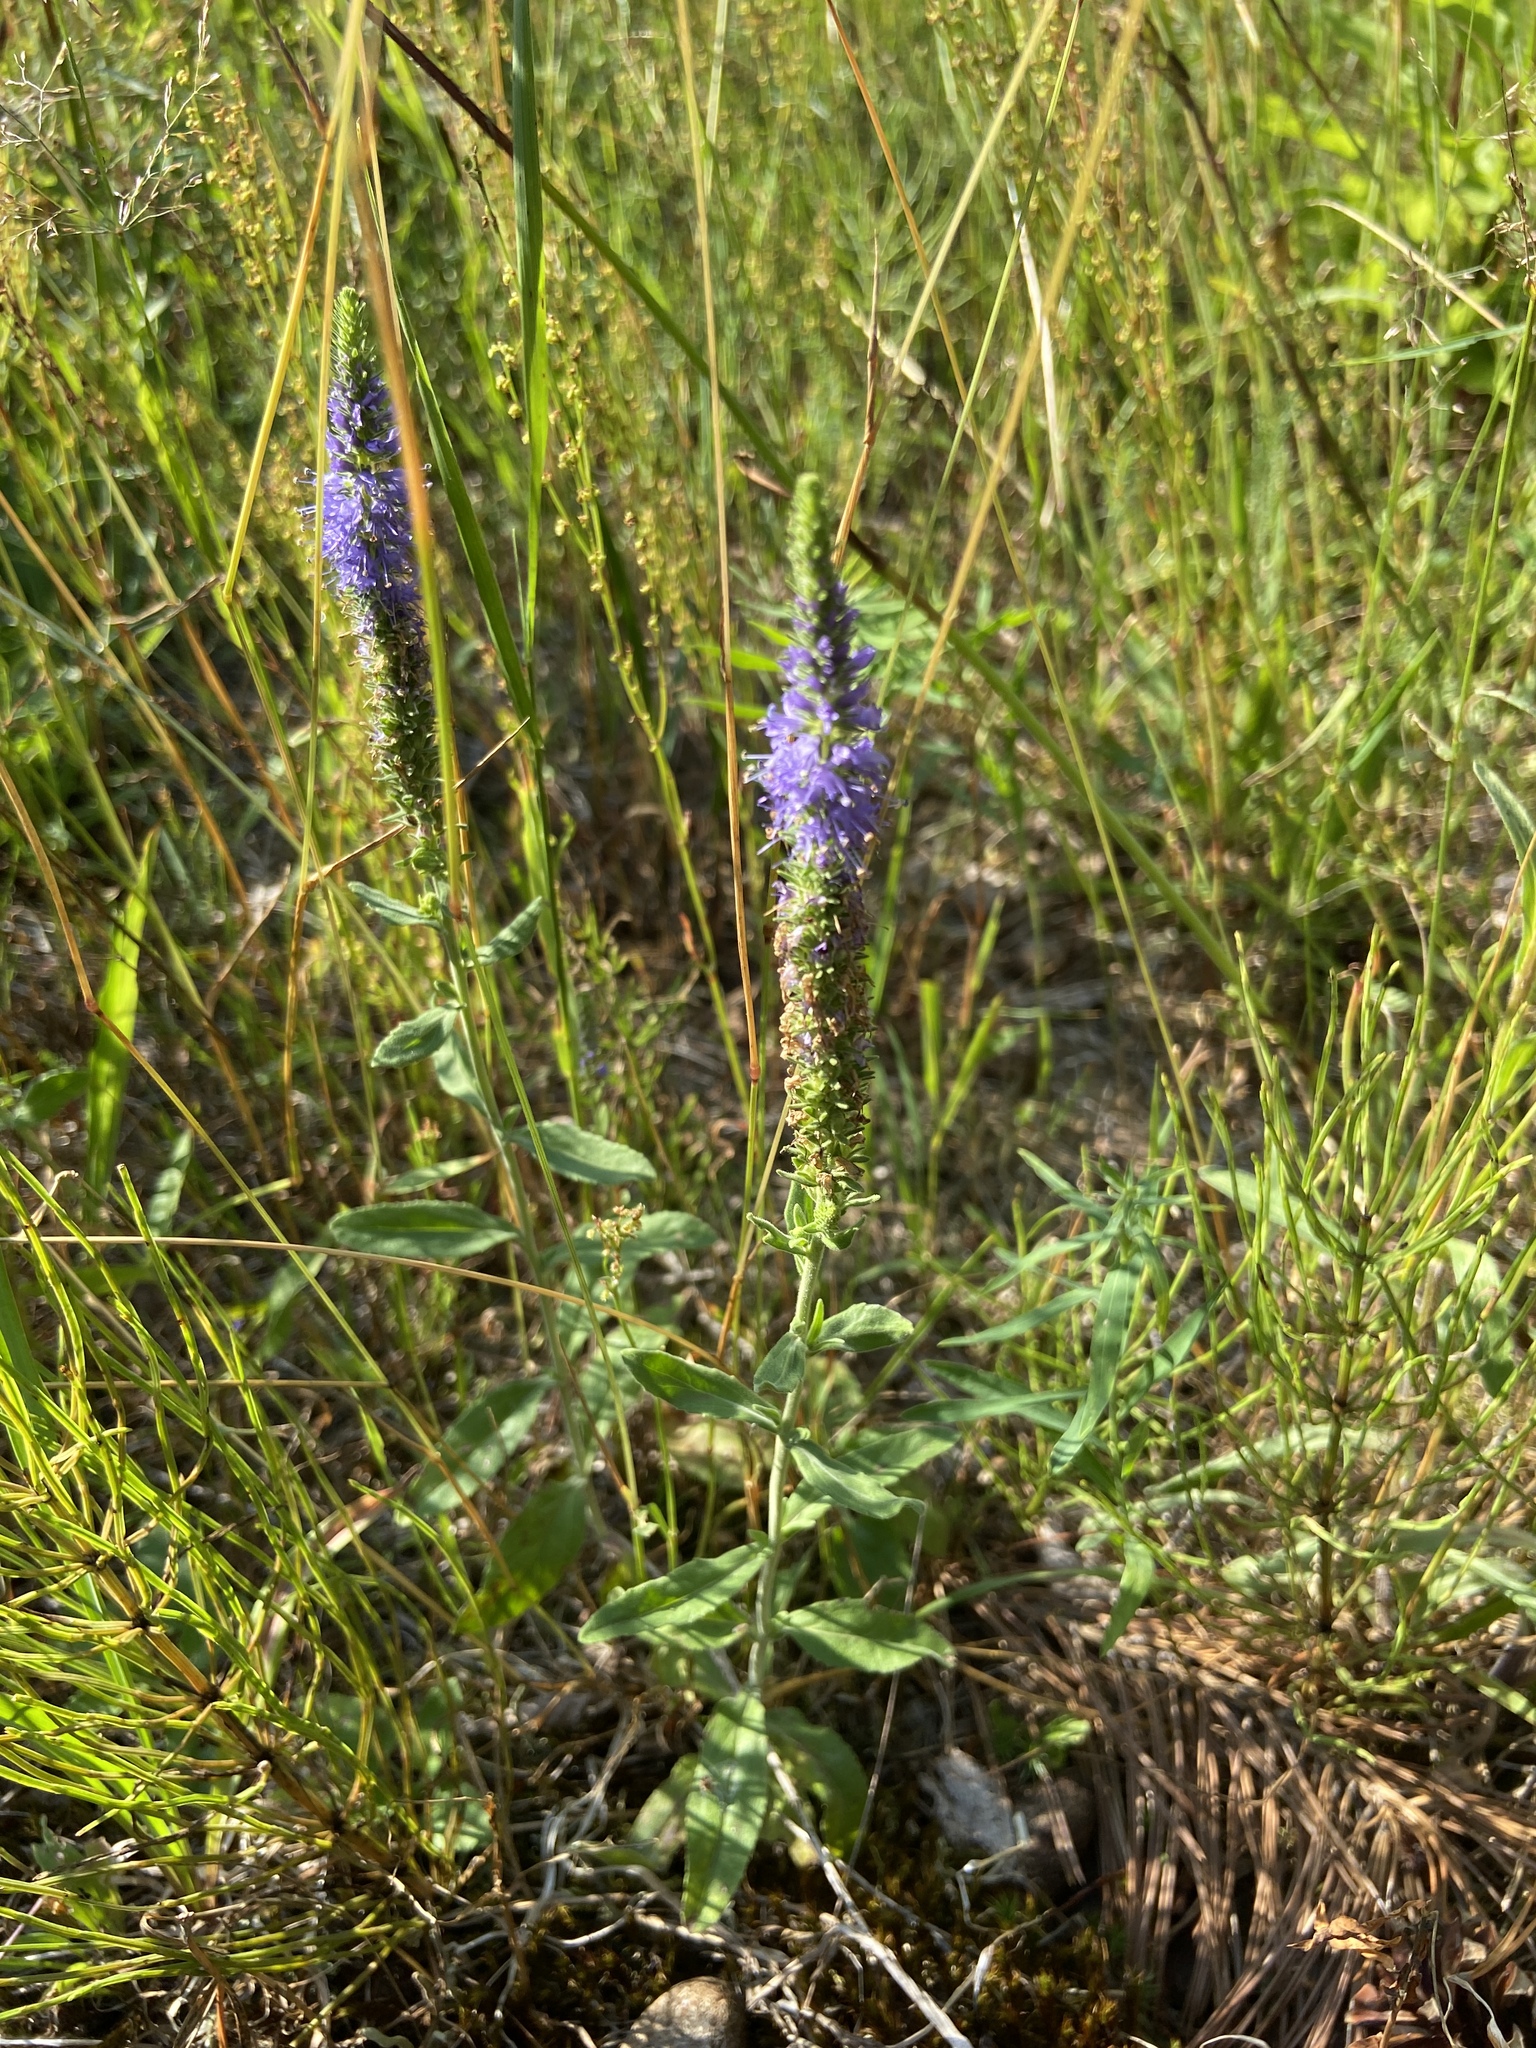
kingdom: Plantae
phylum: Tracheophyta
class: Magnoliopsida
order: Lamiales
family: Plantaginaceae
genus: Veronica
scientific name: Veronica spicata
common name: Spiked speedwell
